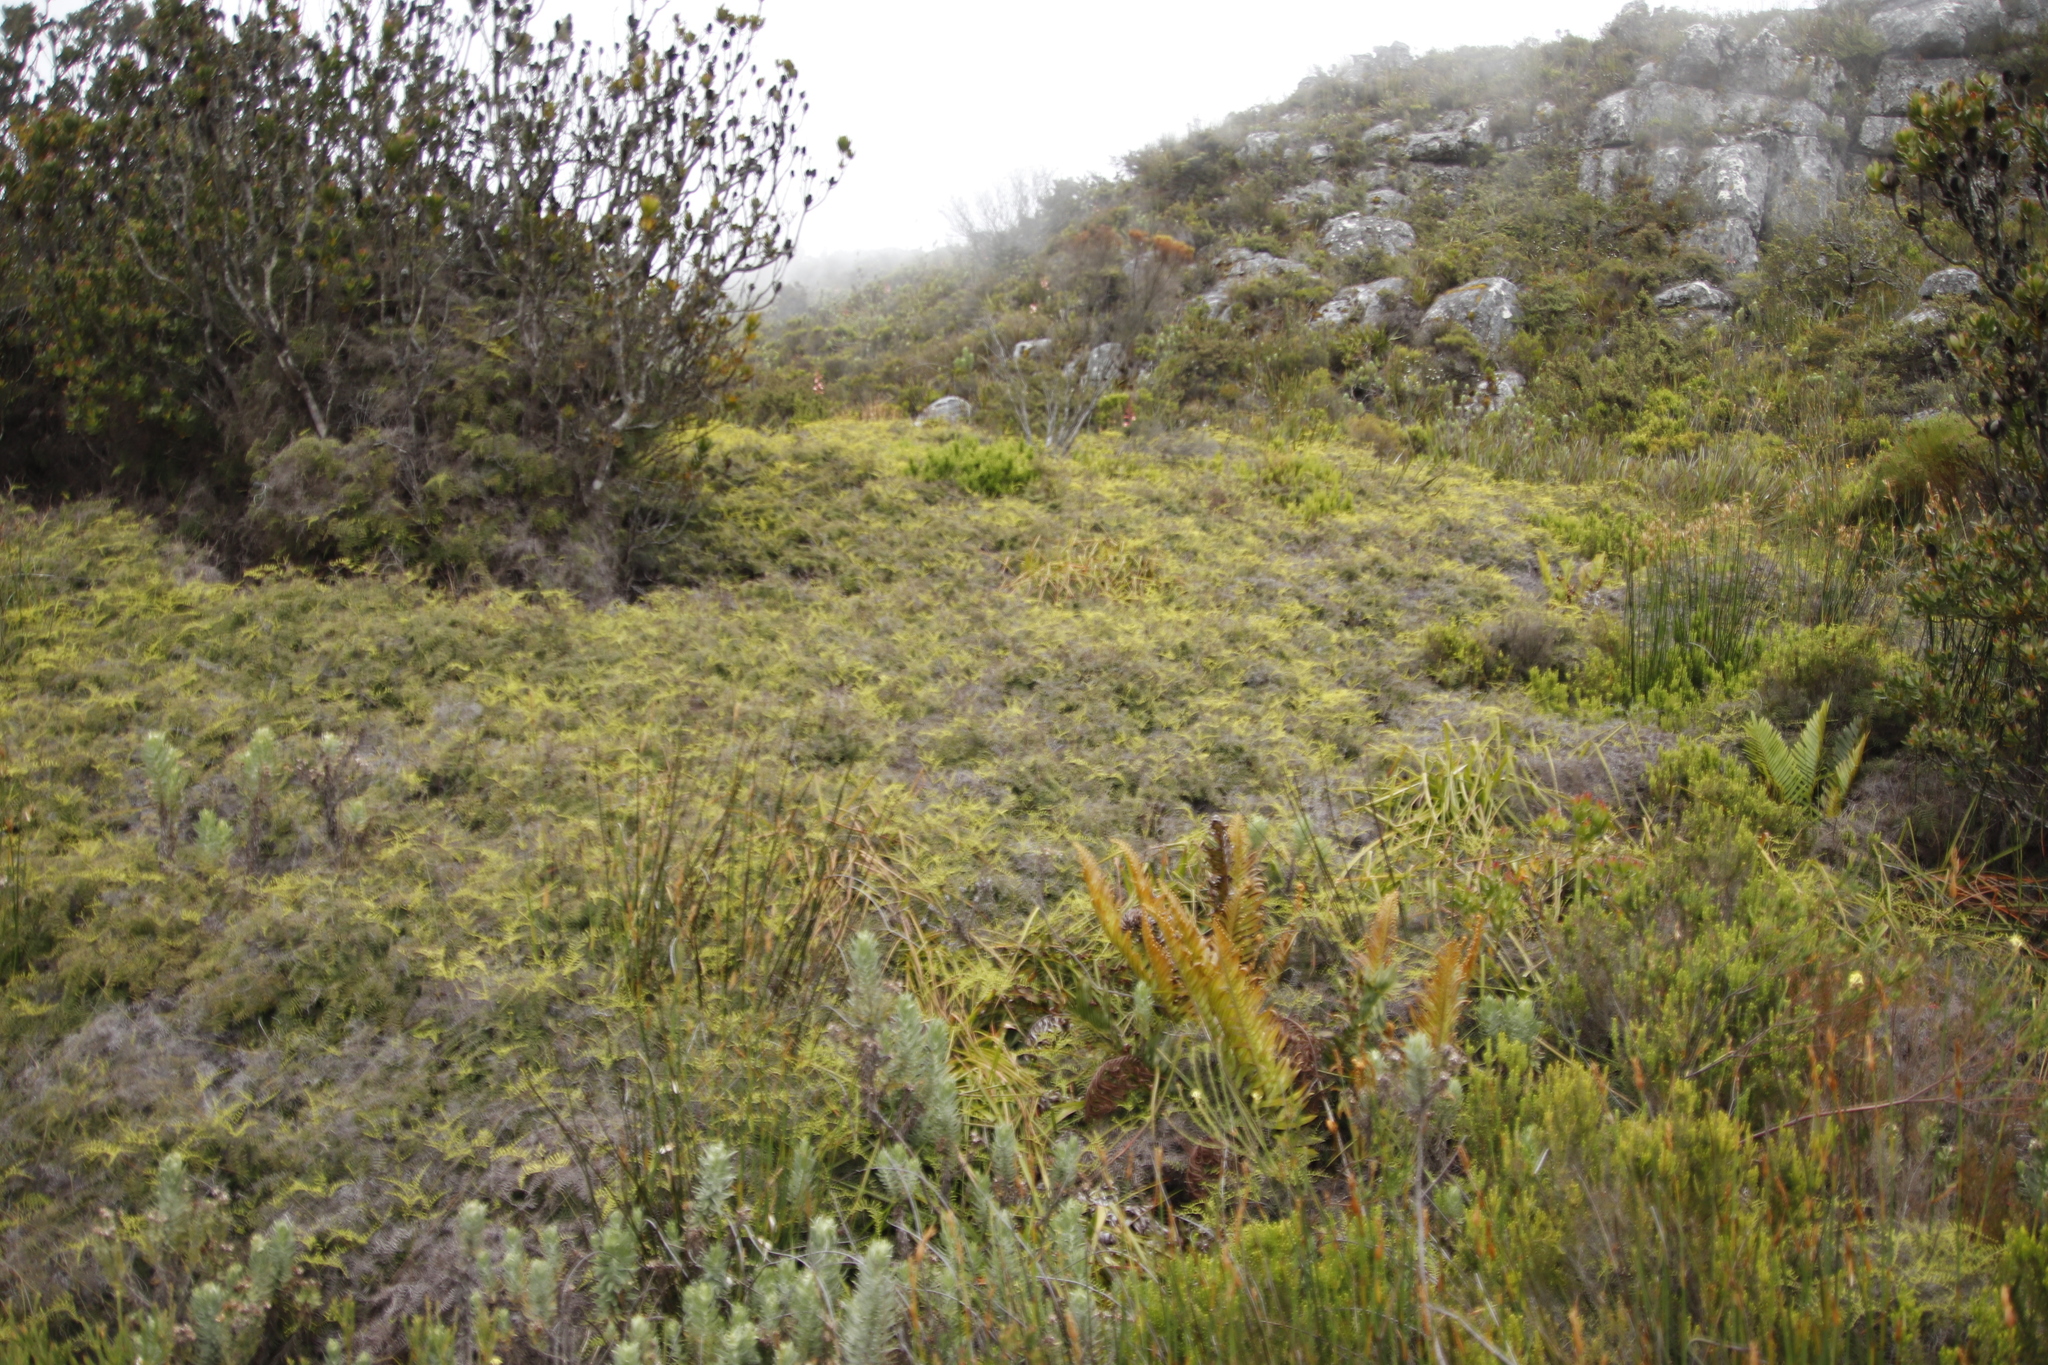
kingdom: Plantae
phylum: Tracheophyta
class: Polypodiopsida
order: Gleicheniales
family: Gleicheniaceae
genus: Gleichenia
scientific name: Gleichenia polypodioides
